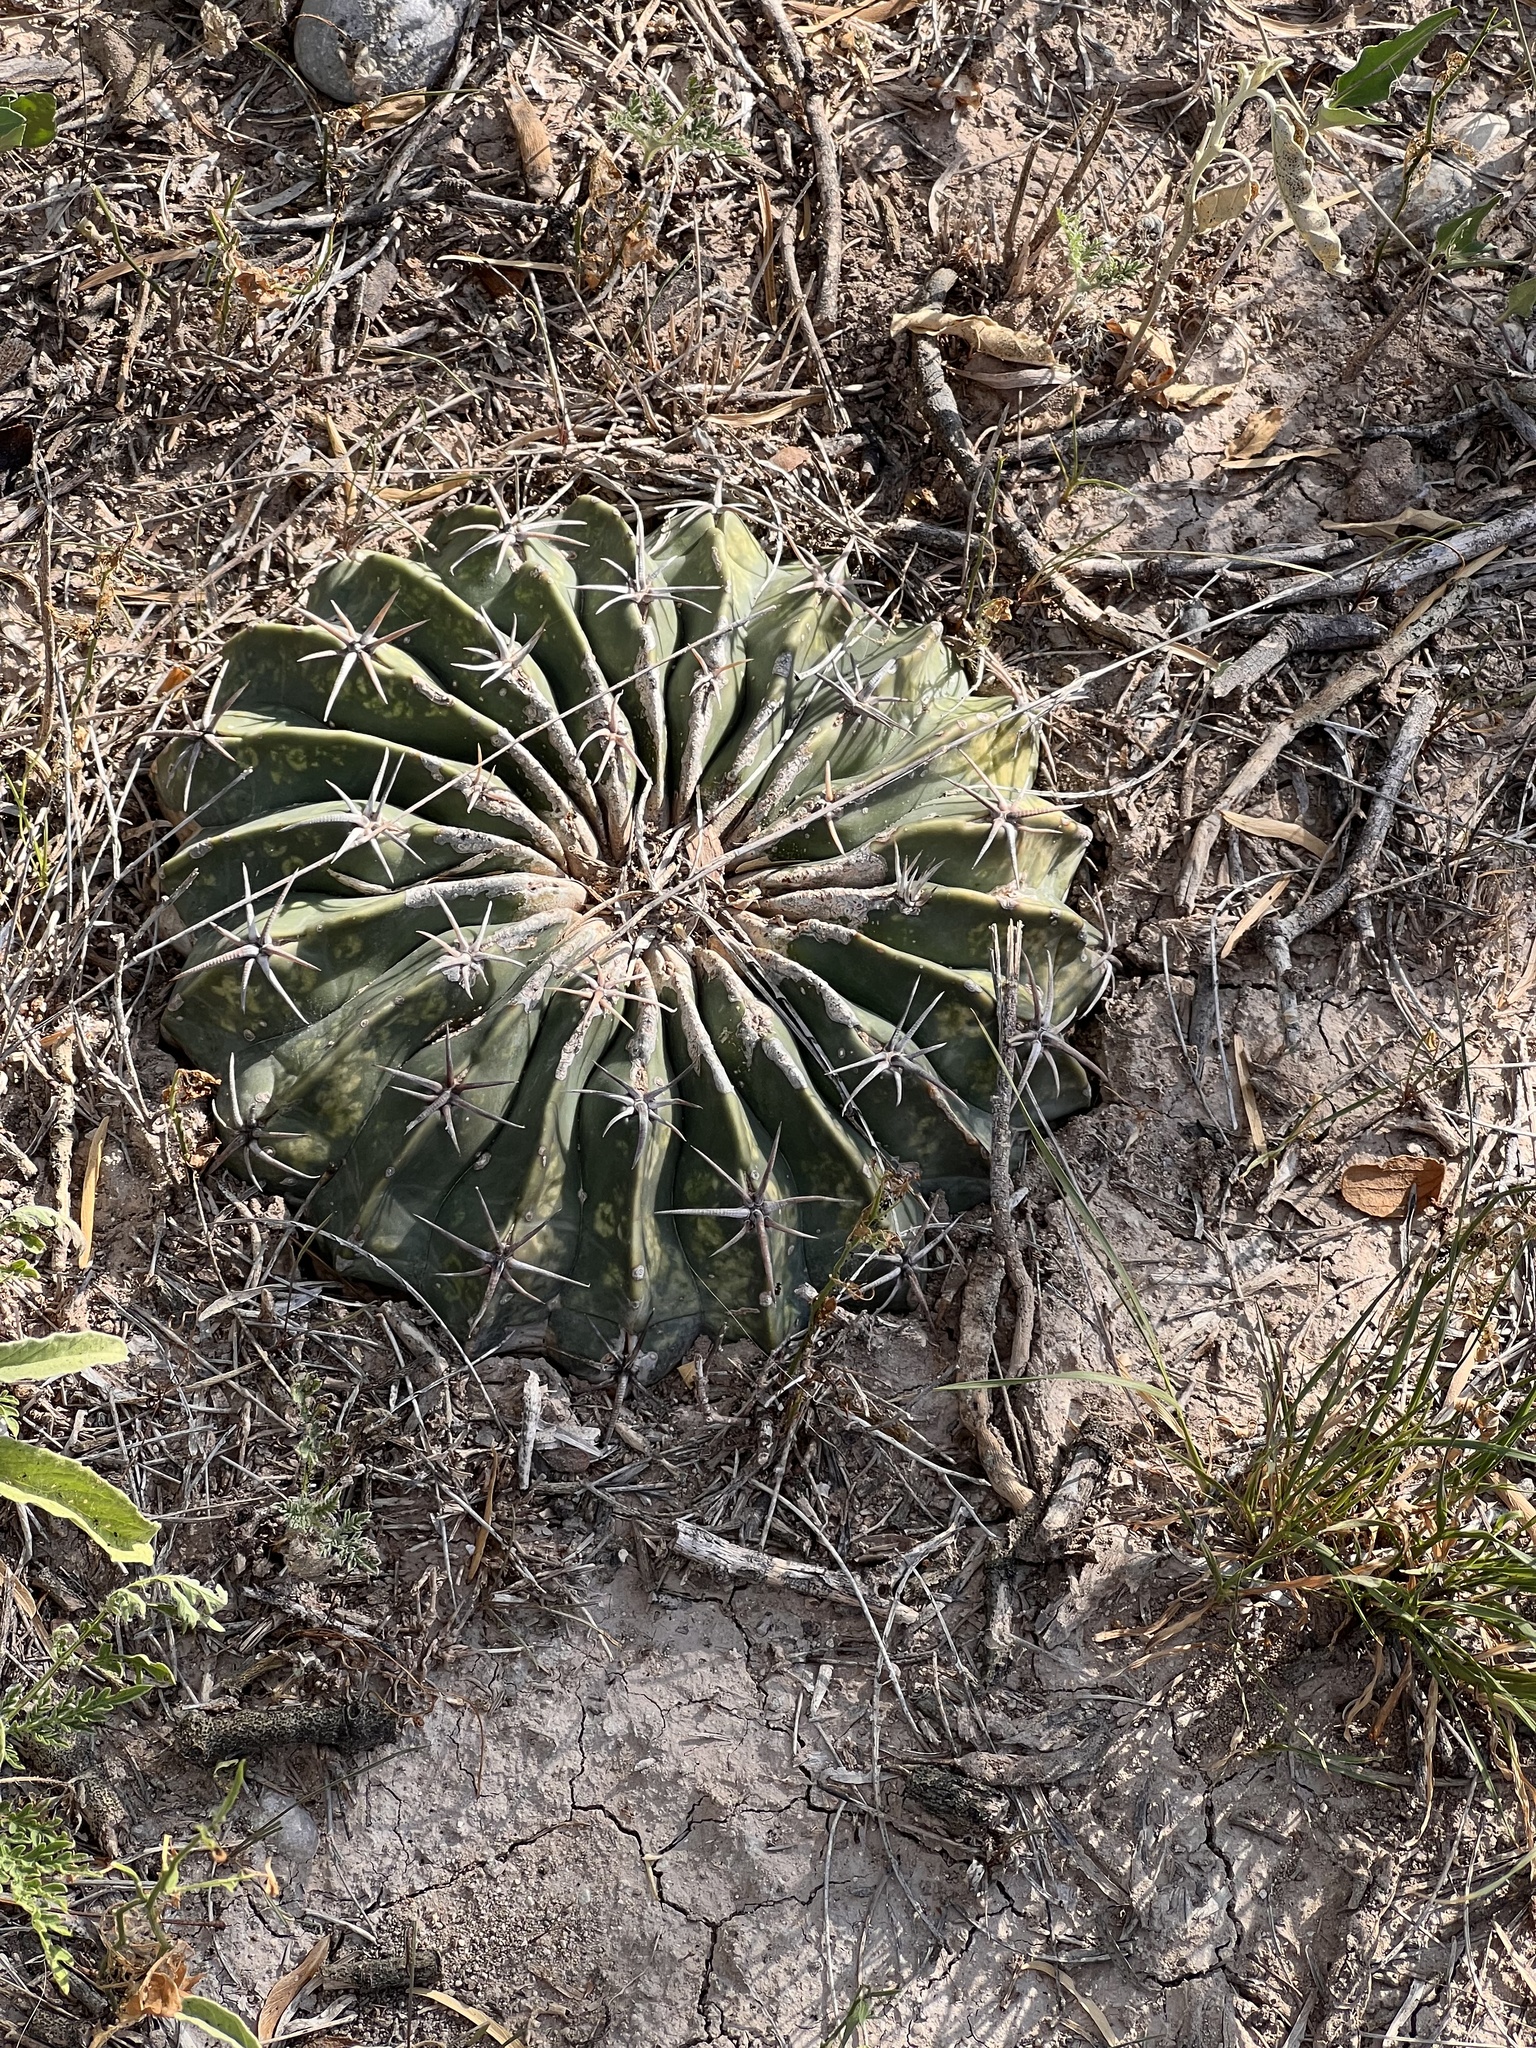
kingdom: Plantae
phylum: Tracheophyta
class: Magnoliopsida
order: Caryophyllales
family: Cactaceae
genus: Echinocactus
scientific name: Echinocactus texensis
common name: Devil's pincushion
